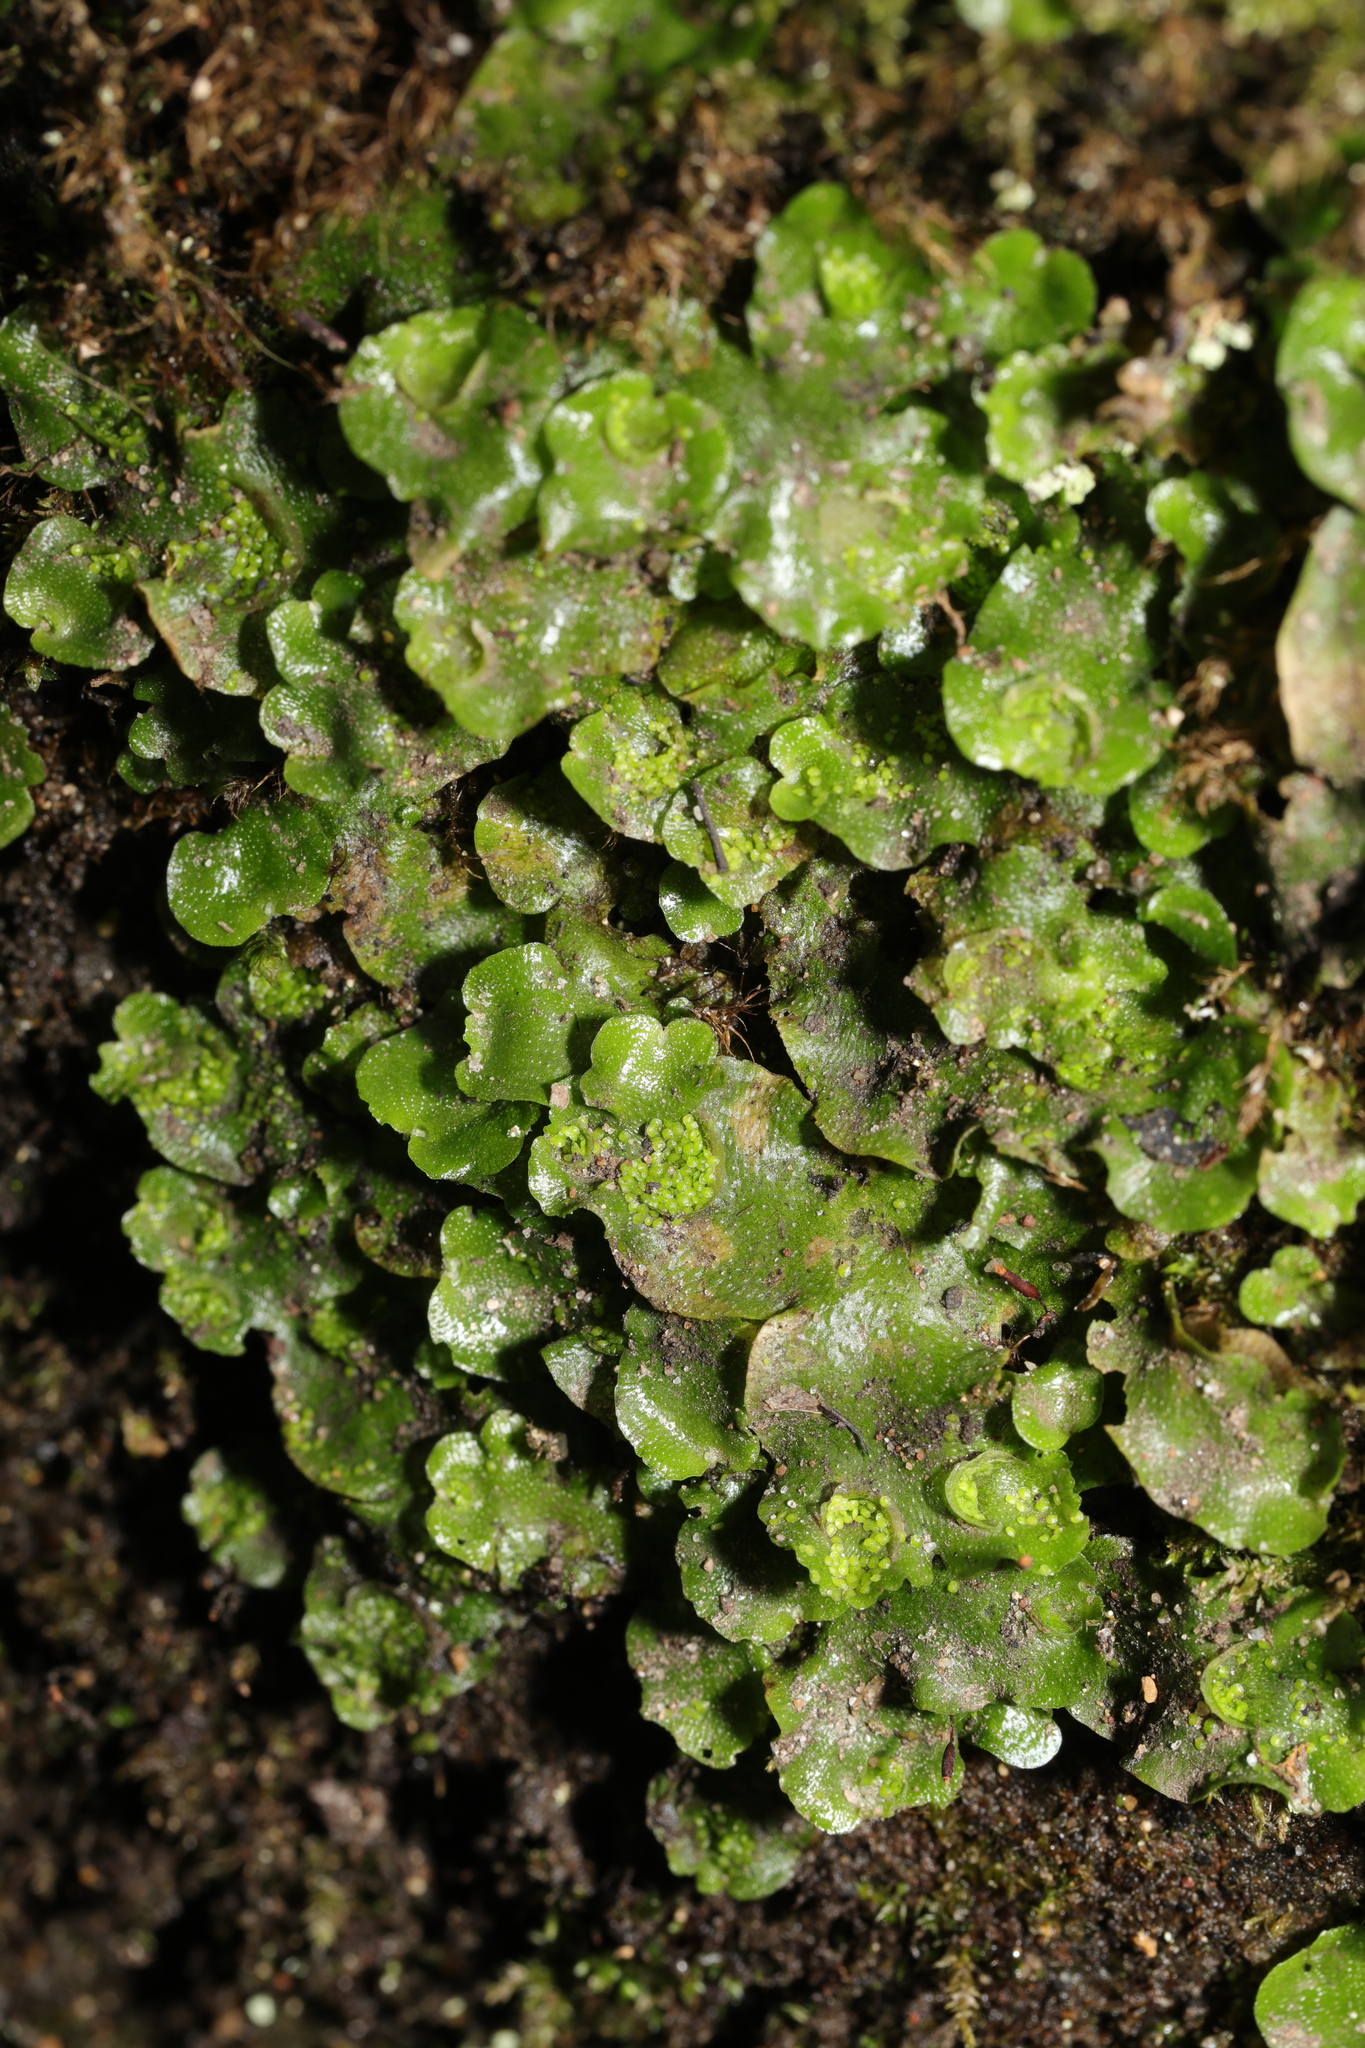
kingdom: Plantae
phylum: Marchantiophyta
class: Marchantiopsida
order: Lunulariales
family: Lunulariaceae
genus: Lunularia
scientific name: Lunularia cruciata
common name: Crescent-cup liverwort
